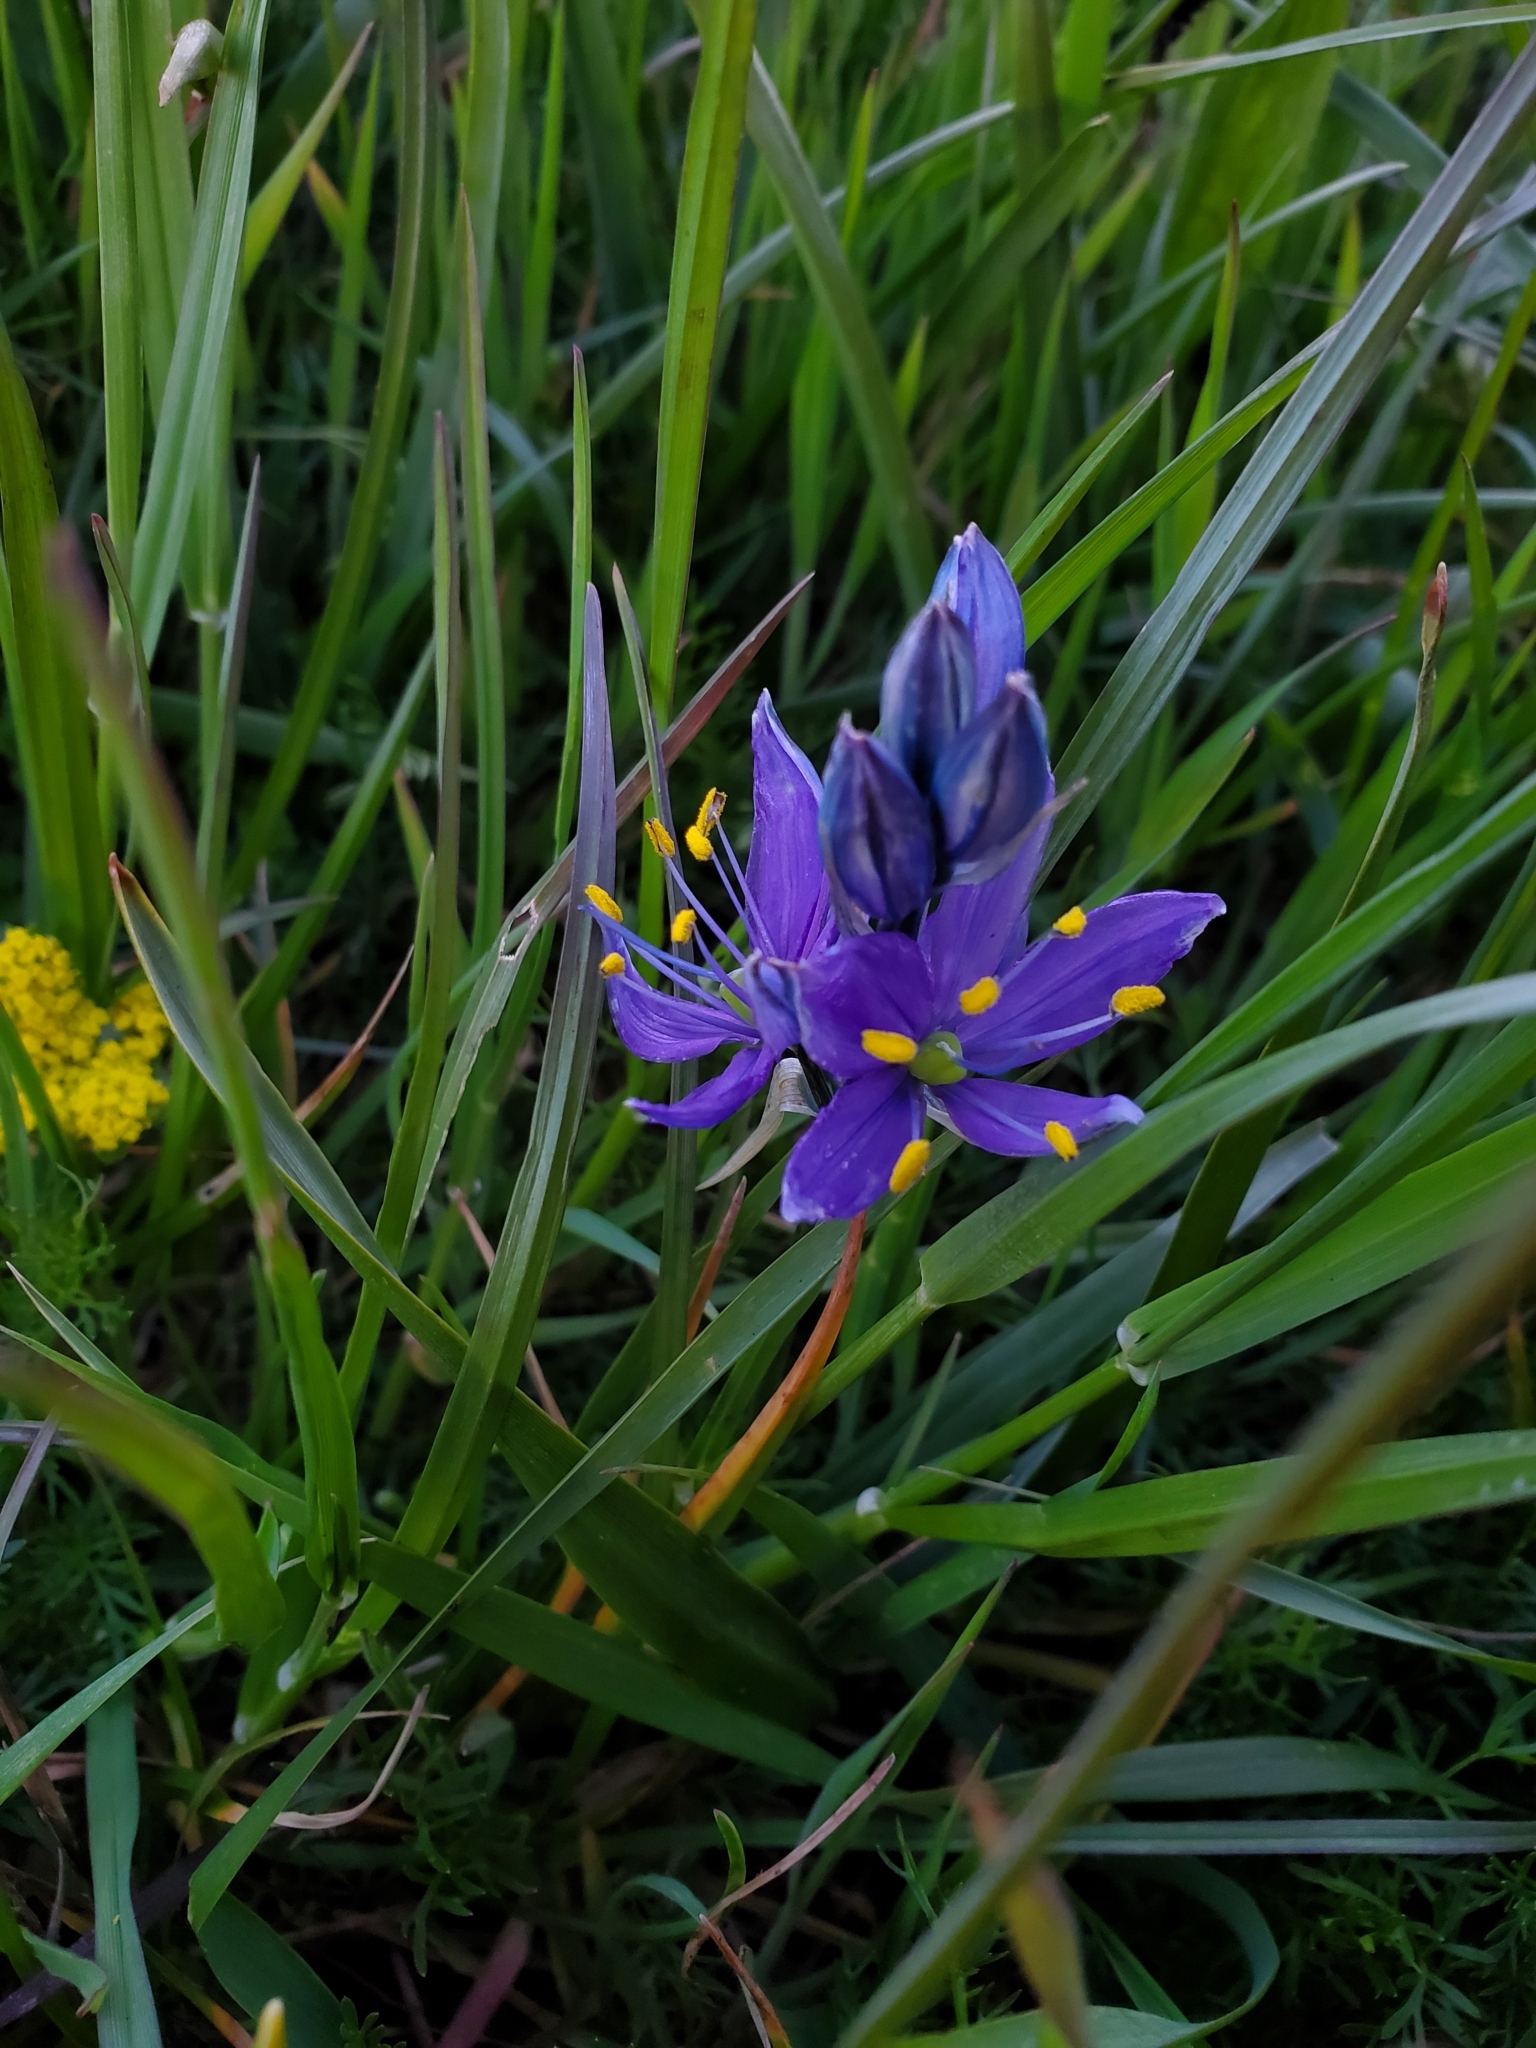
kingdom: Plantae
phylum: Tracheophyta
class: Liliopsida
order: Asparagales
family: Asparagaceae
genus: Camassia
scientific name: Camassia quamash
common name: Common camas
